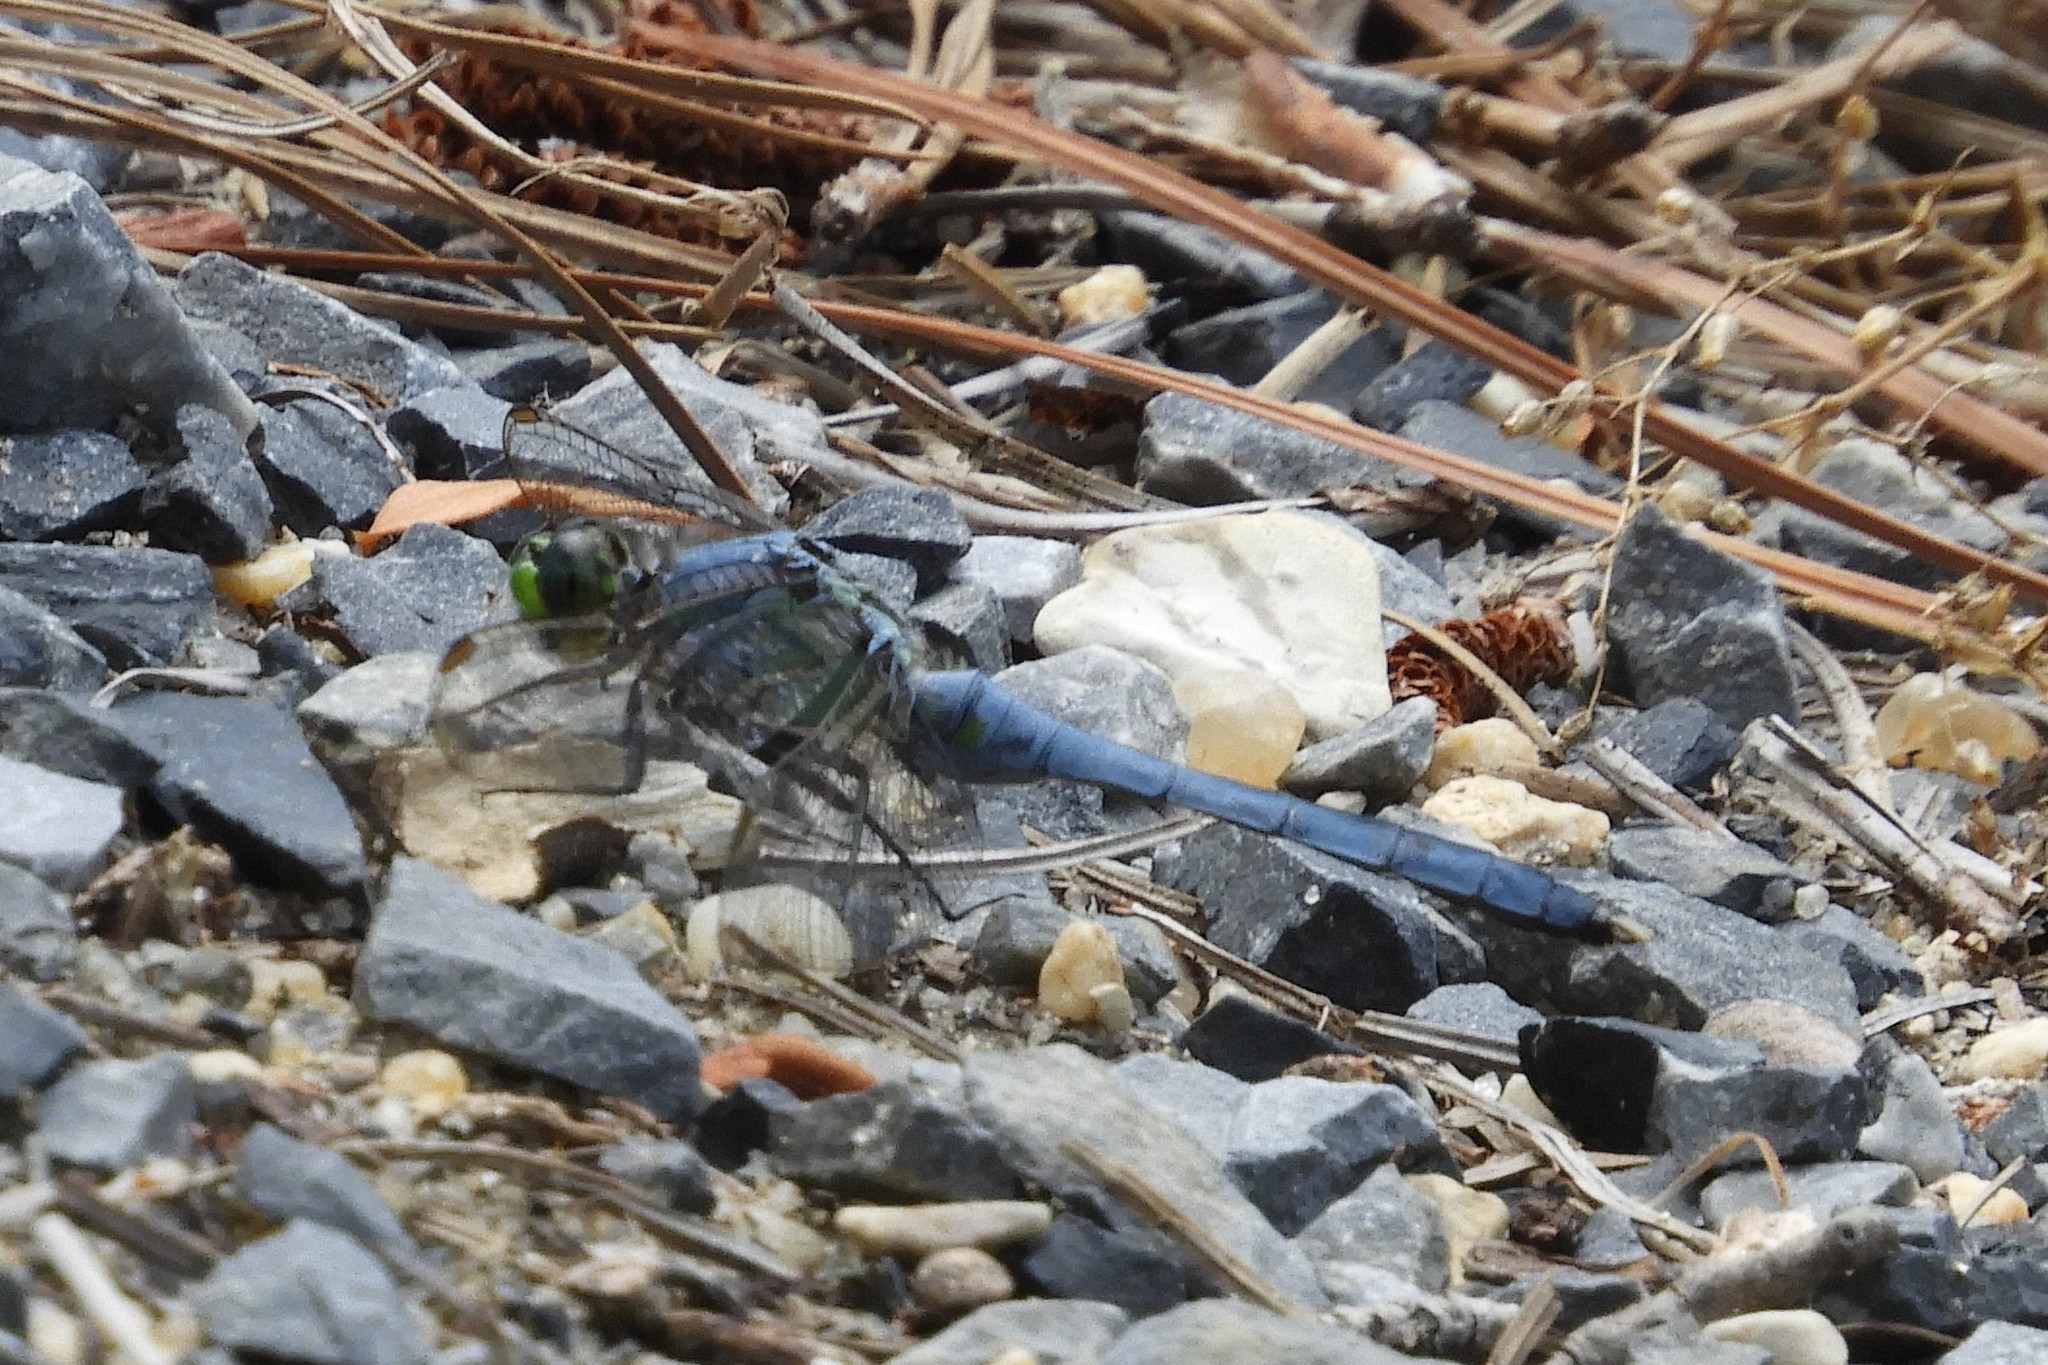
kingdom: Animalia
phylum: Arthropoda
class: Insecta
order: Odonata
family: Libellulidae
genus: Erythemis
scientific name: Erythemis simplicicollis
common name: Eastern pondhawk
